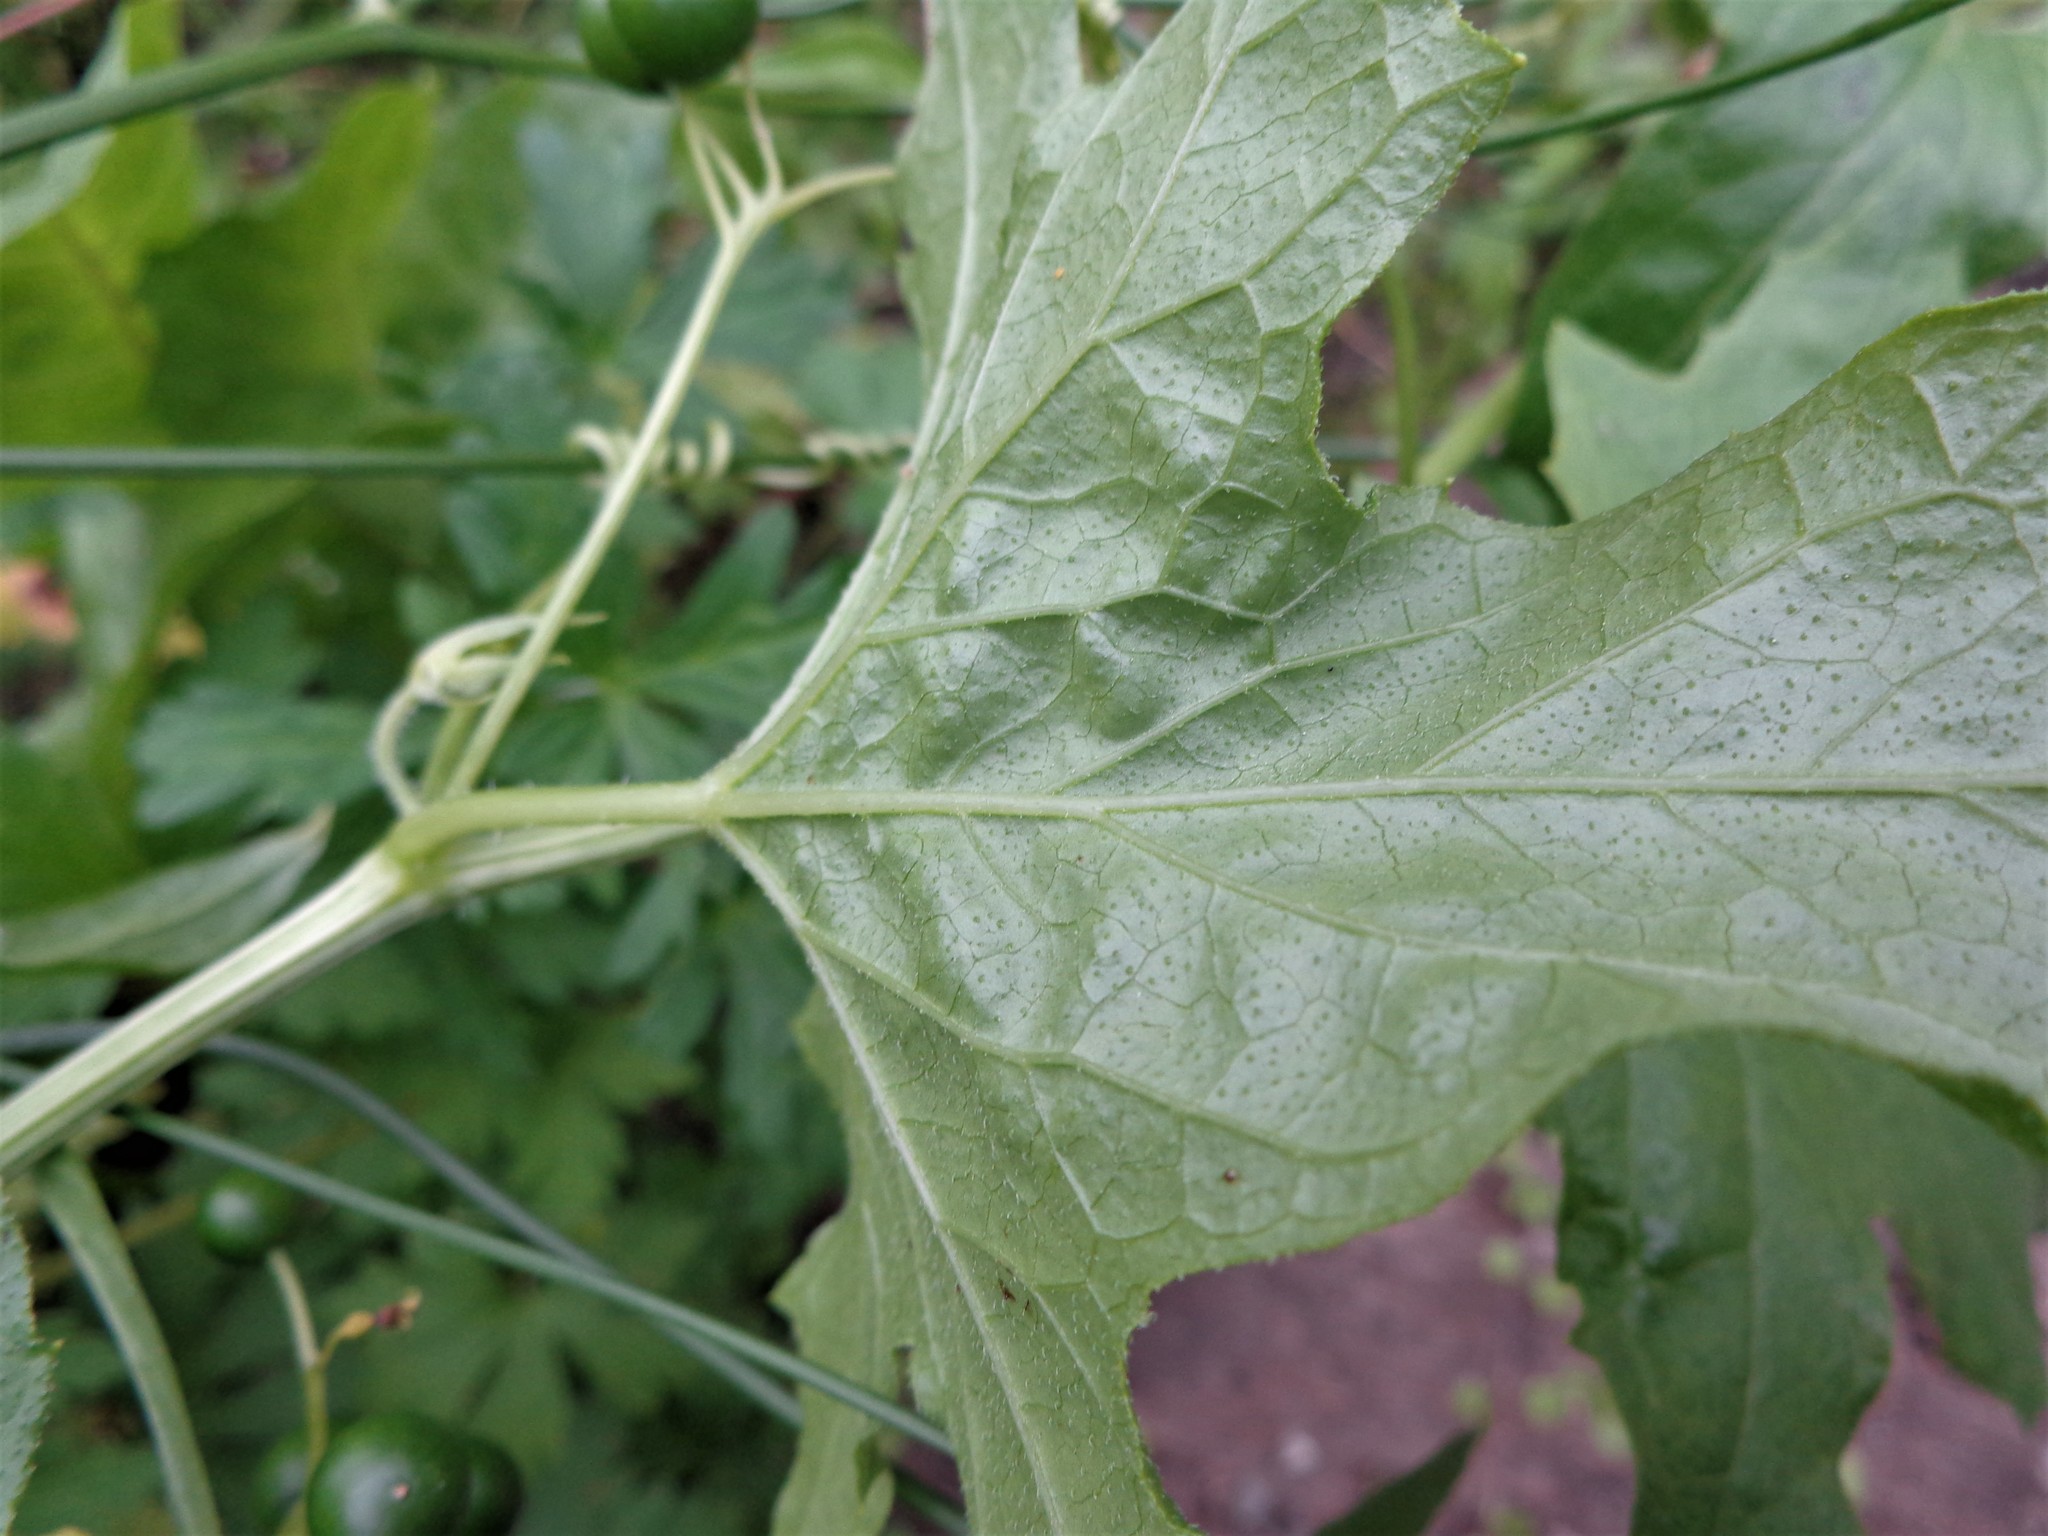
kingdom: Plantae
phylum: Tracheophyta
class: Magnoliopsida
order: Cucurbitales
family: Cucurbitaceae
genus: Bryonia
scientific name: Bryonia alba
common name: White bryony
